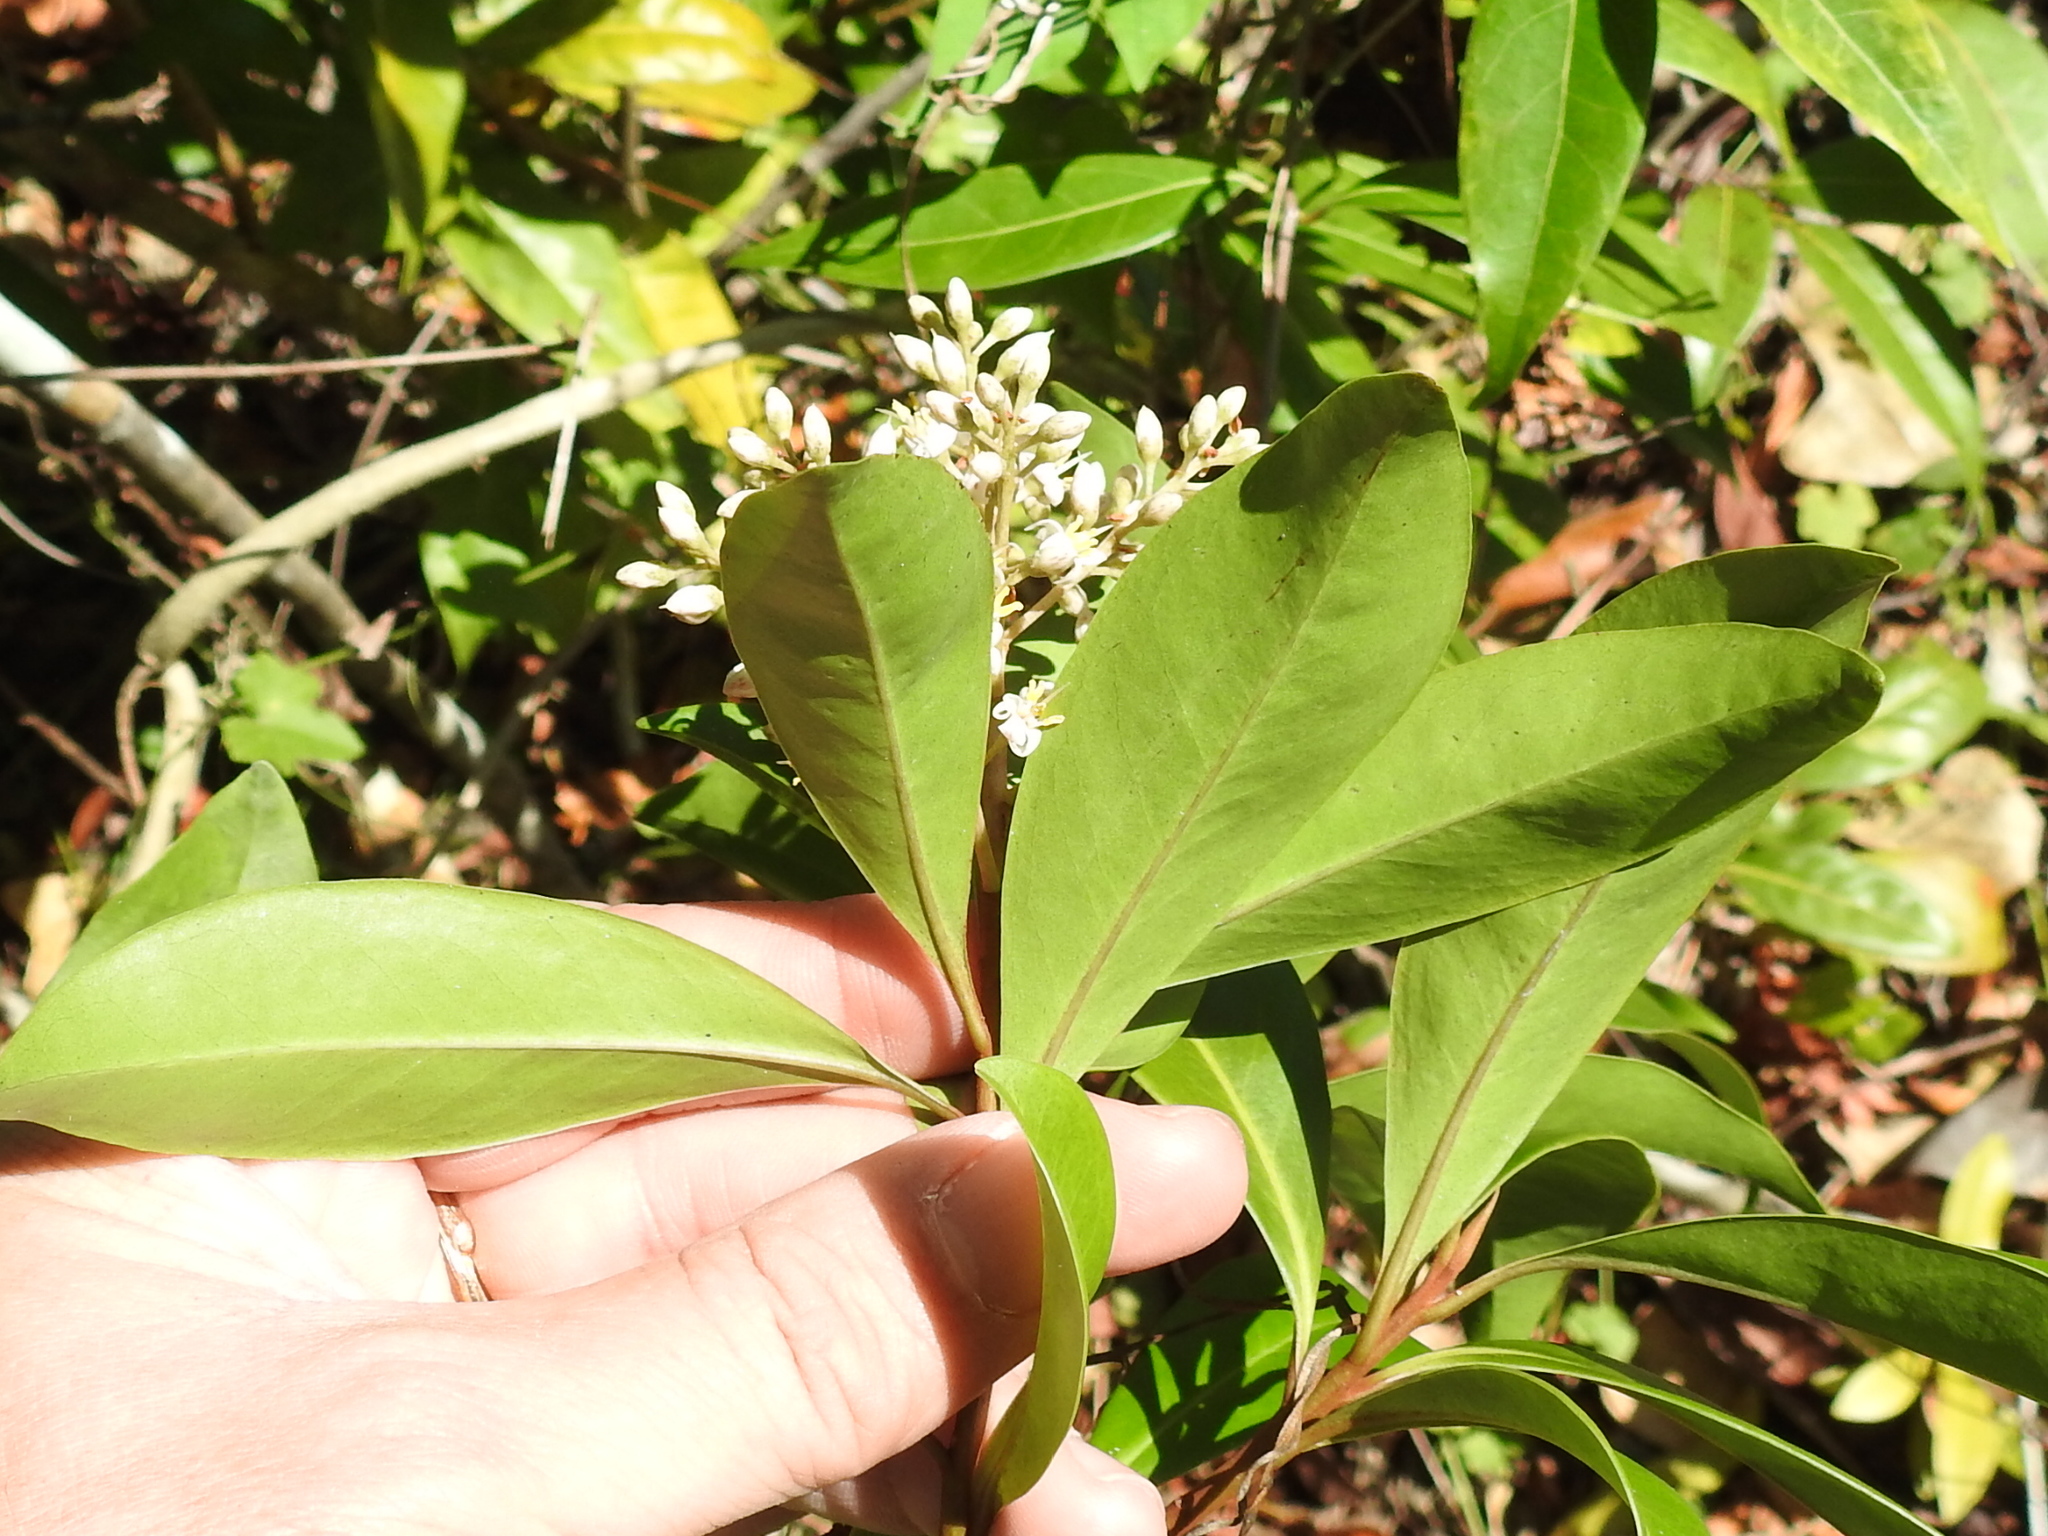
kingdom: Plantae
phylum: Tracheophyta
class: Magnoliopsida
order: Ericales
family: Primulaceae
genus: Ardisia
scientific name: Ardisia escallonioides
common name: Island marlberry
